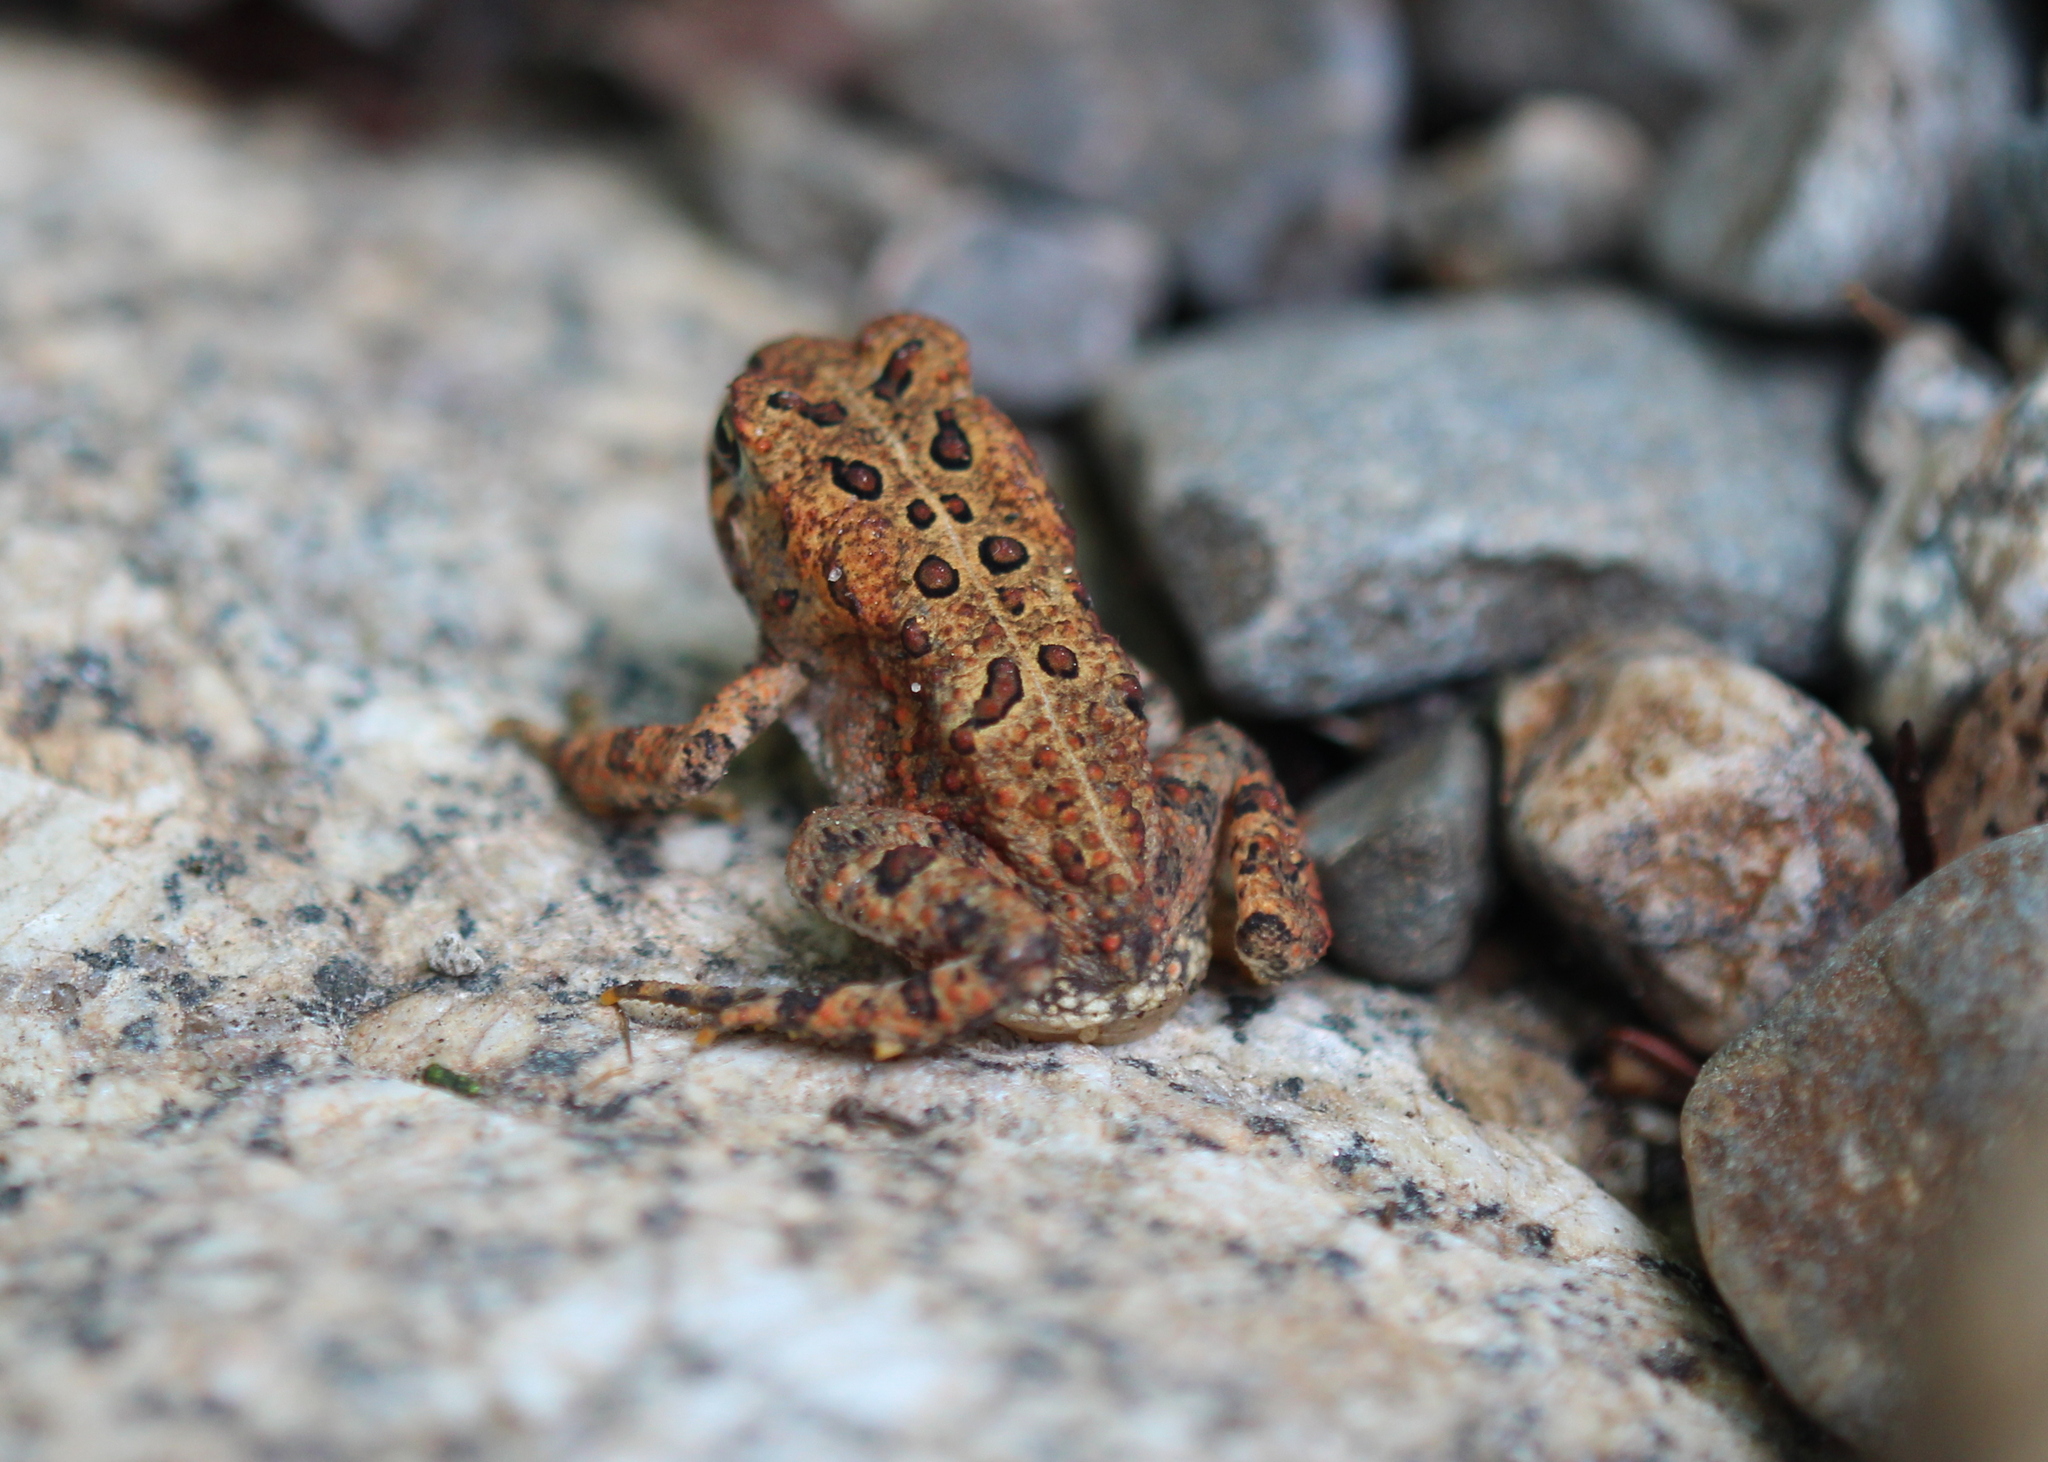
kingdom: Animalia
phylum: Chordata
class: Amphibia
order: Anura
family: Bufonidae
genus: Anaxyrus
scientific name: Anaxyrus americanus
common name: American toad
